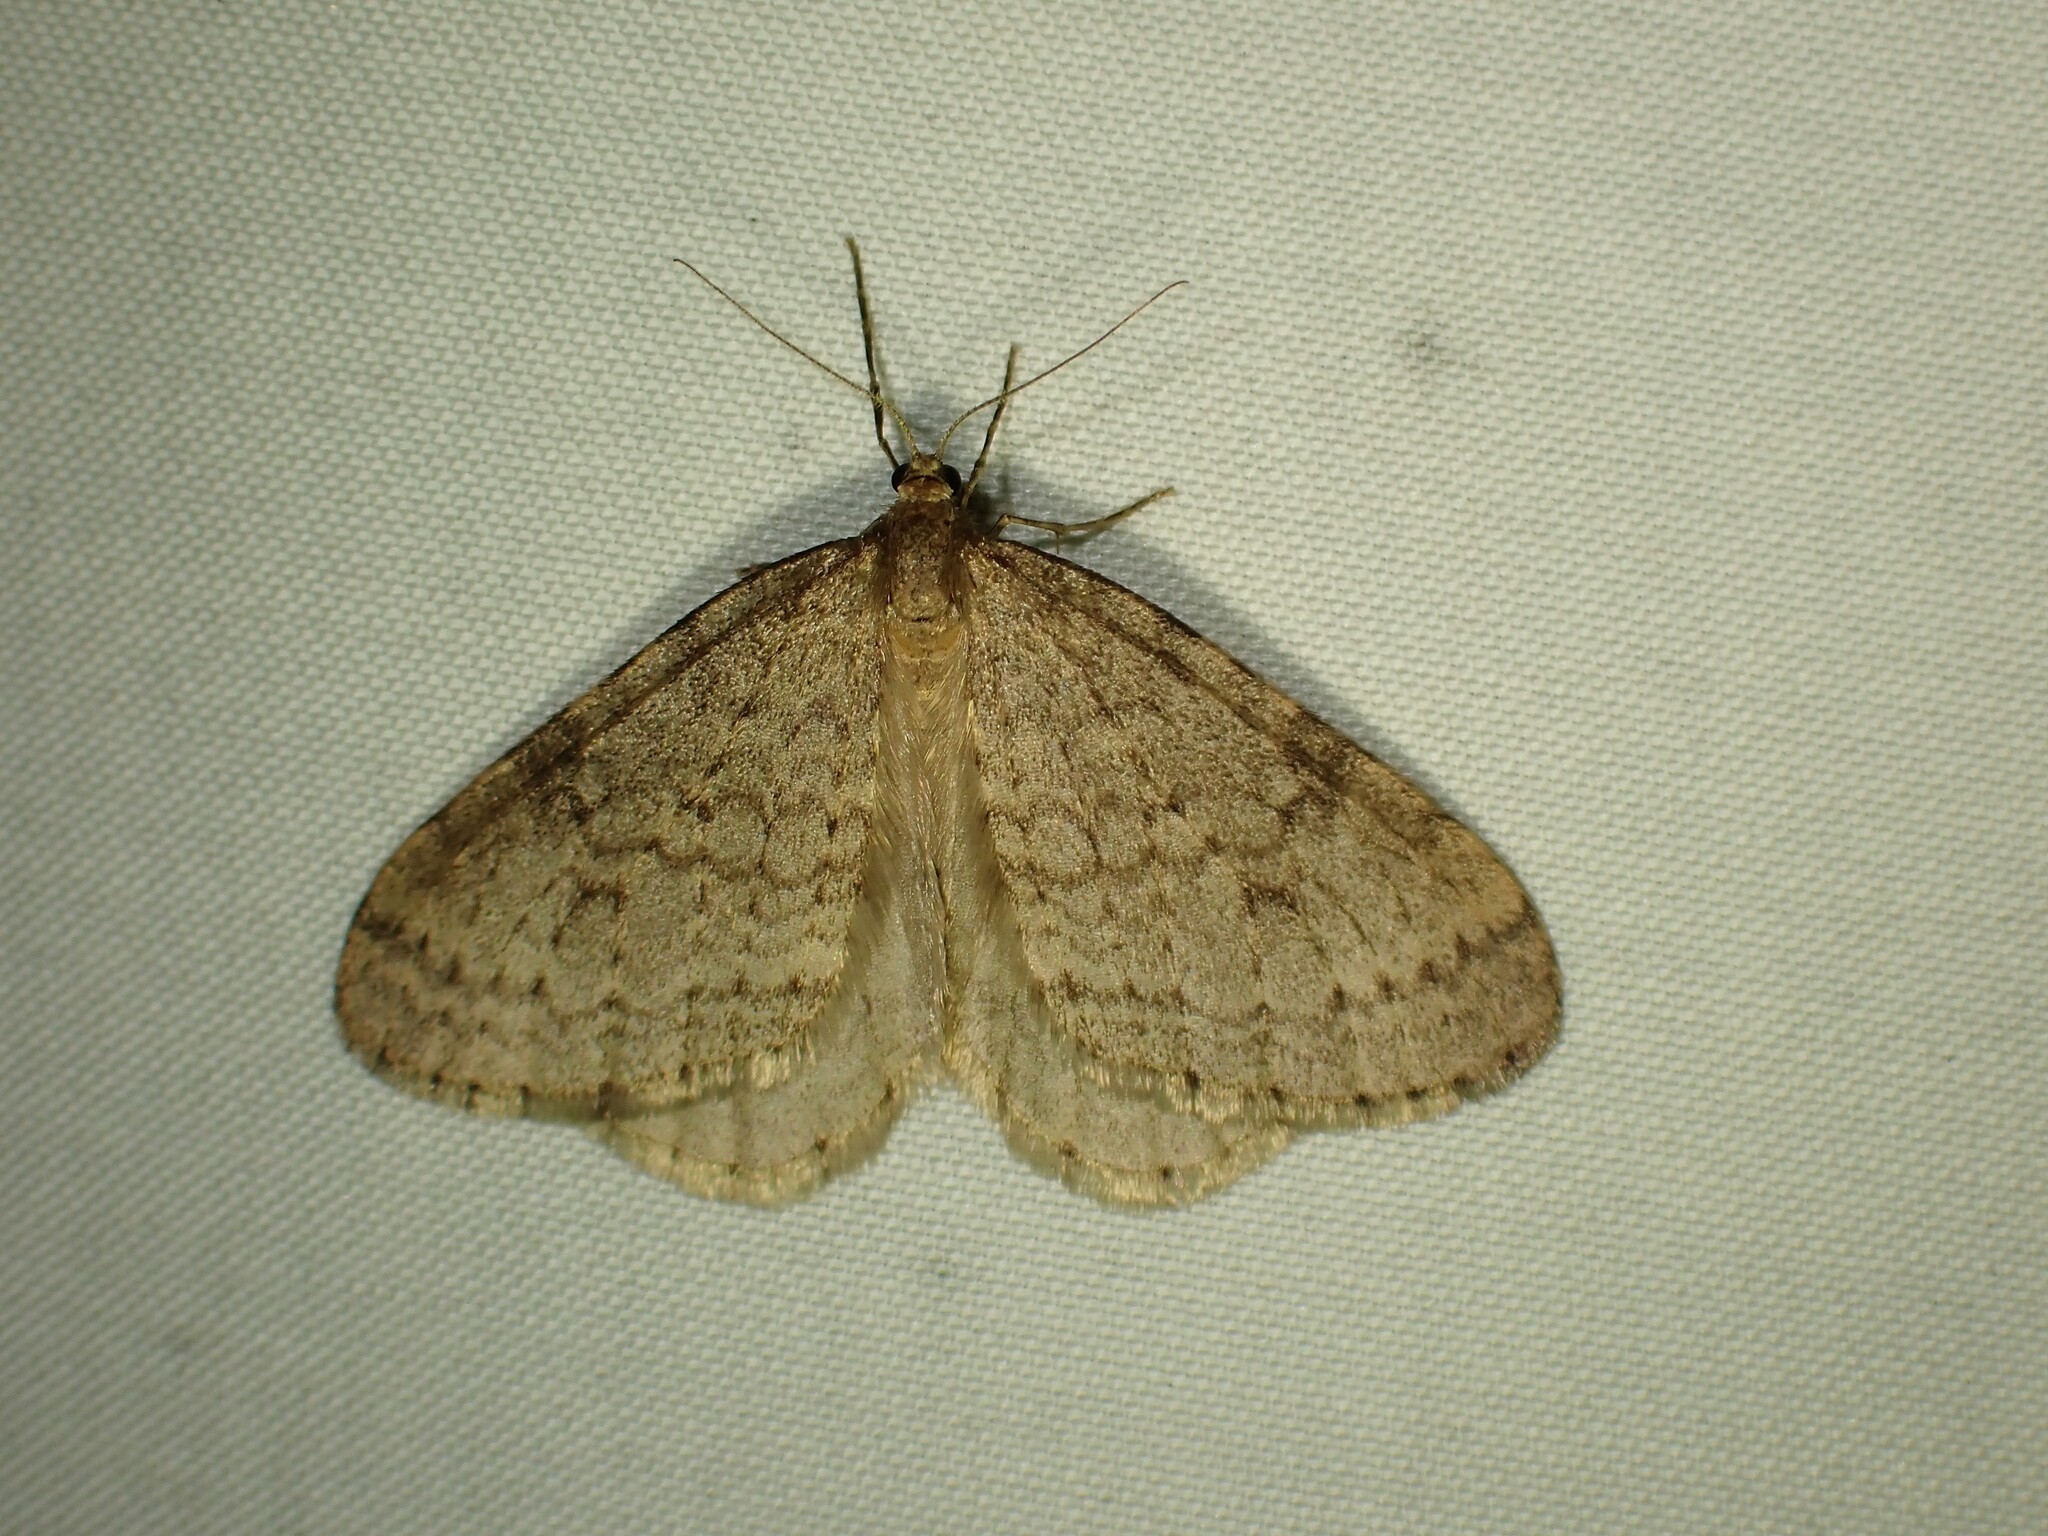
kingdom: Animalia
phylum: Arthropoda
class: Insecta
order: Lepidoptera
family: Geometridae
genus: Operophtera
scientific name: Operophtera bruceata
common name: Bruce spanworm
